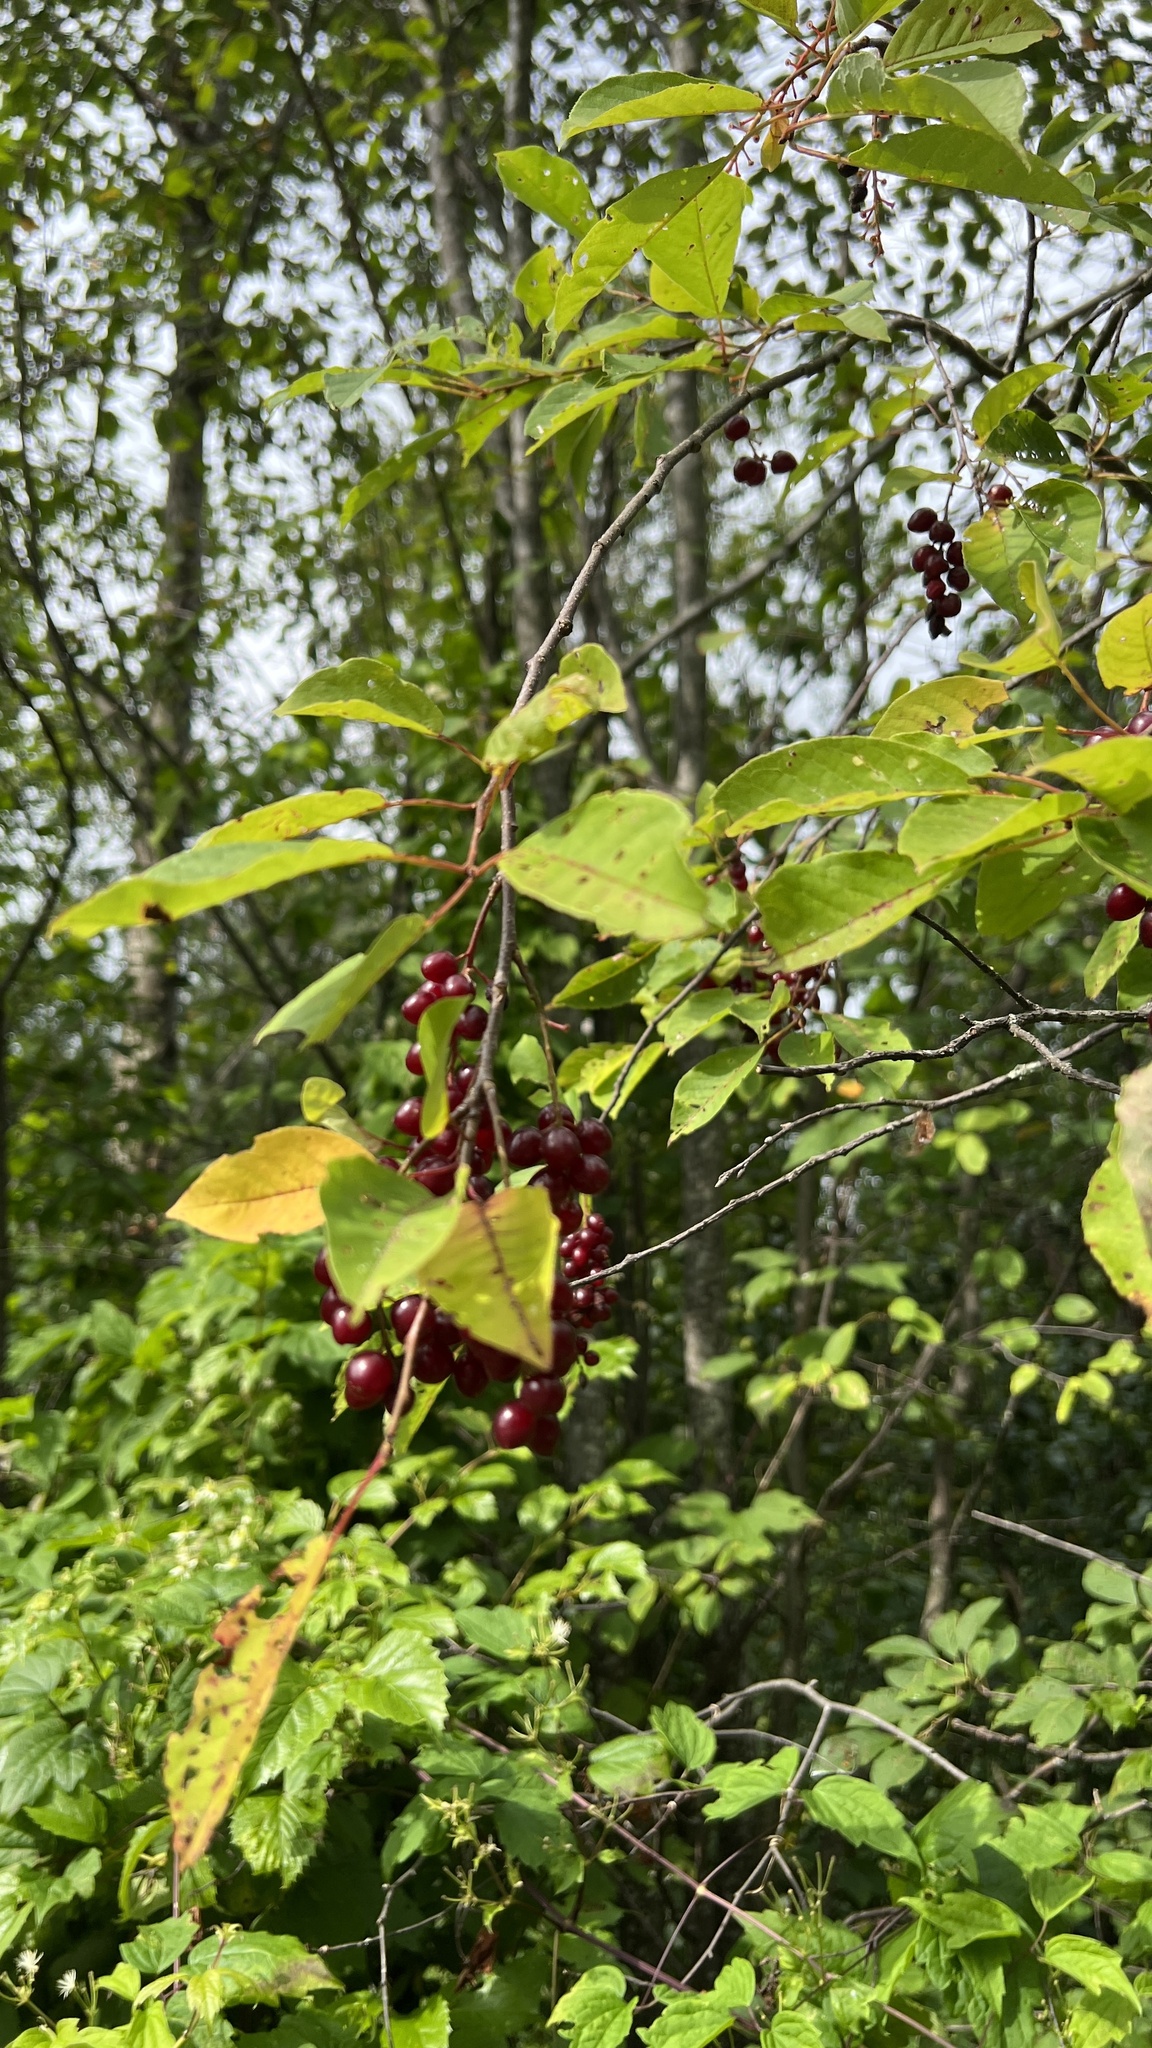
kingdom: Plantae
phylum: Tracheophyta
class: Magnoliopsida
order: Rosales
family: Rosaceae
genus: Prunus
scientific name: Prunus serotina
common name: Black cherry
